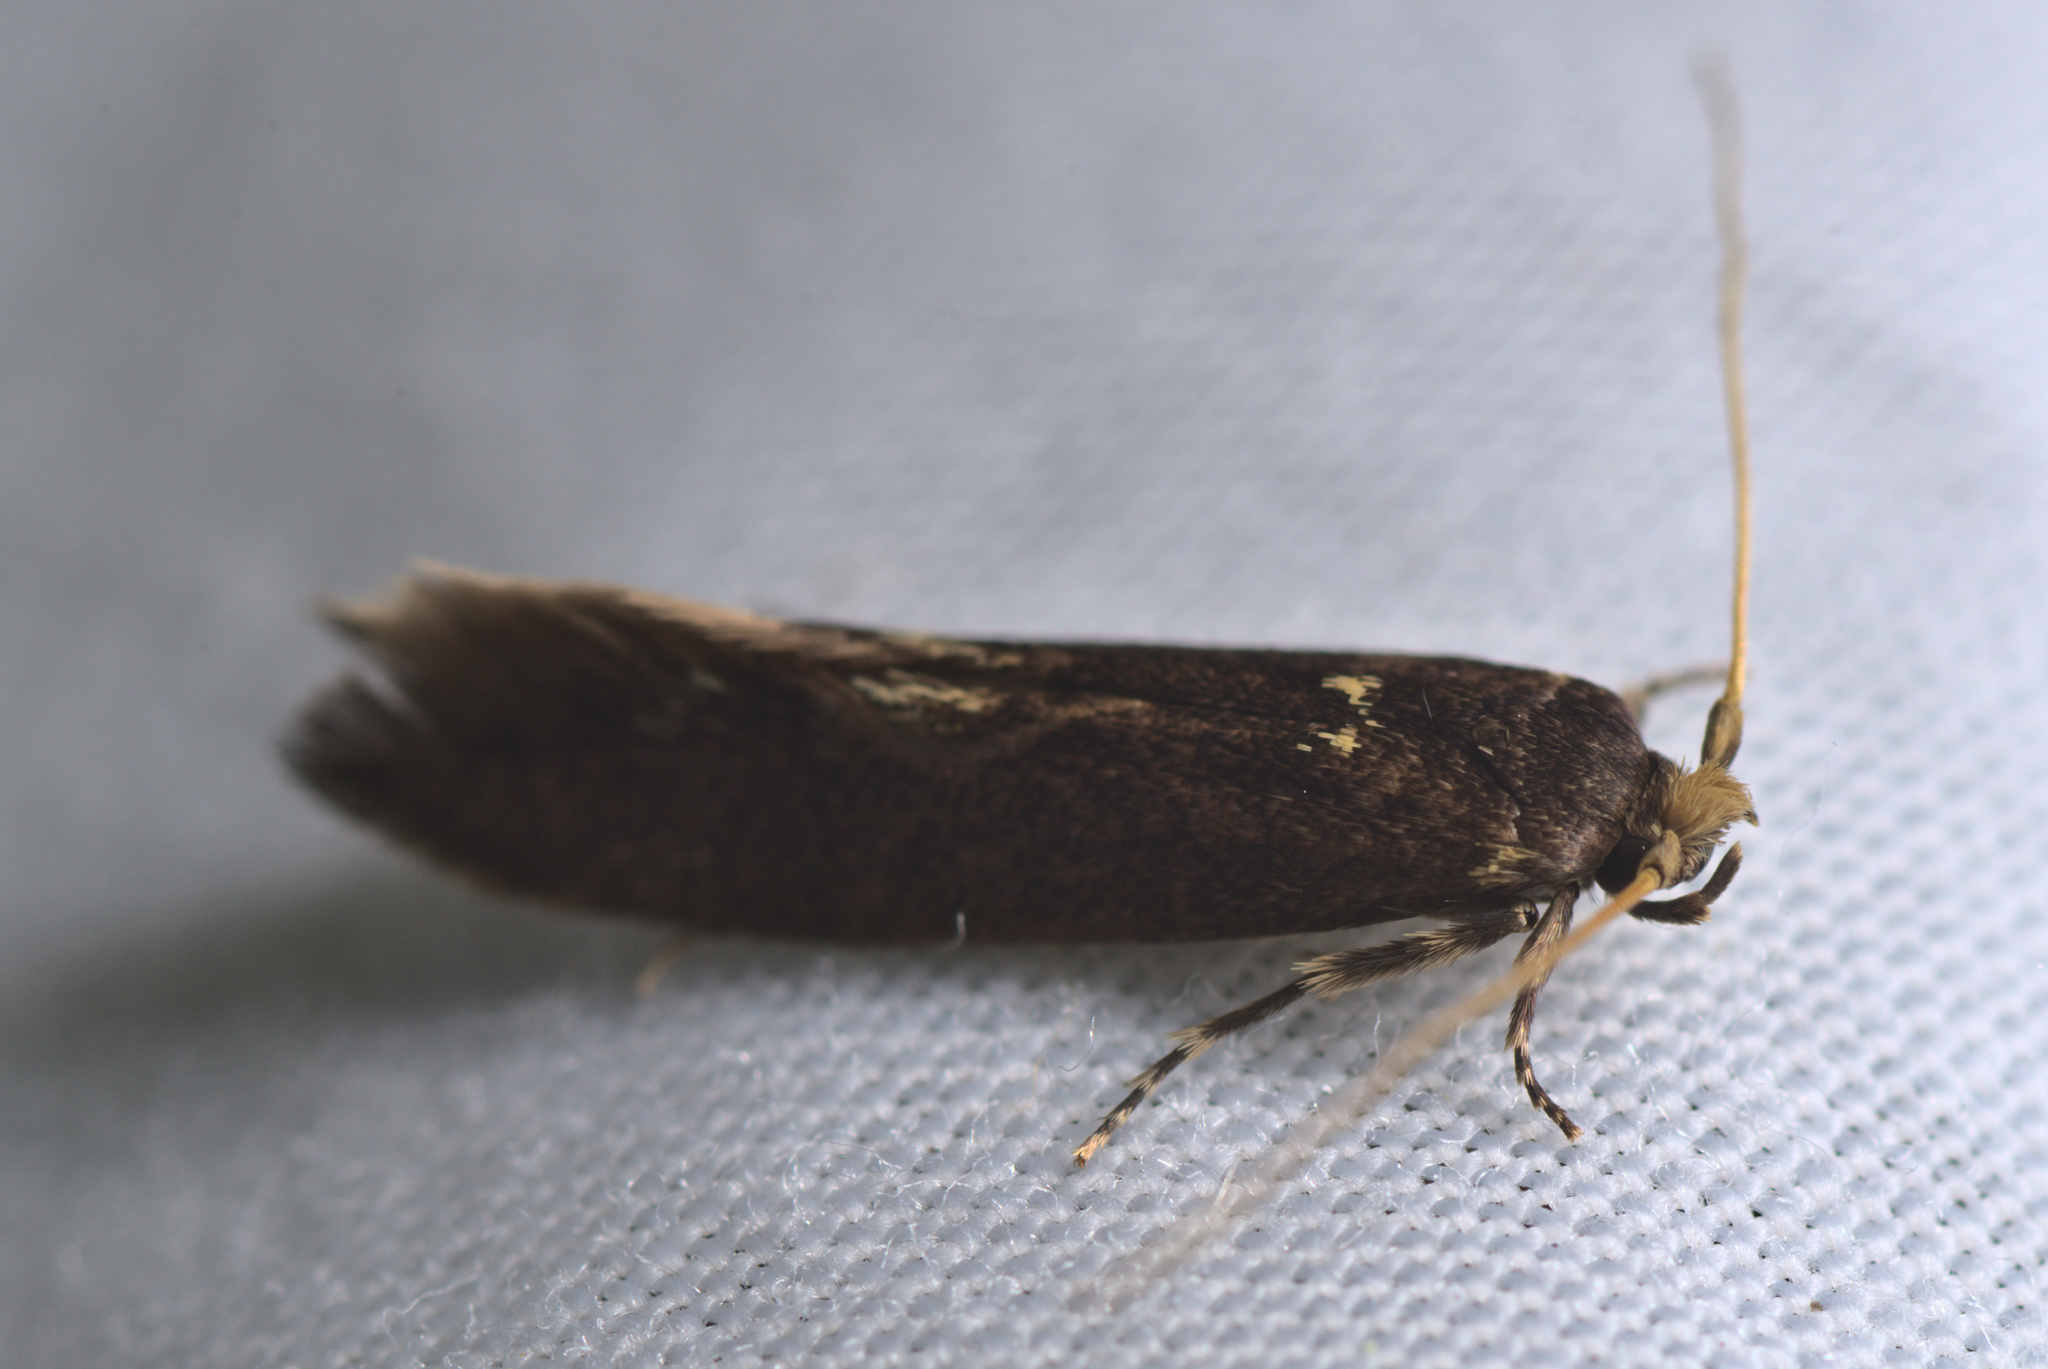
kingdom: Animalia
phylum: Arthropoda
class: Insecta
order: Lepidoptera
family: Tineidae
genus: Opogona
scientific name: Opogona omoscopa
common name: Moth
